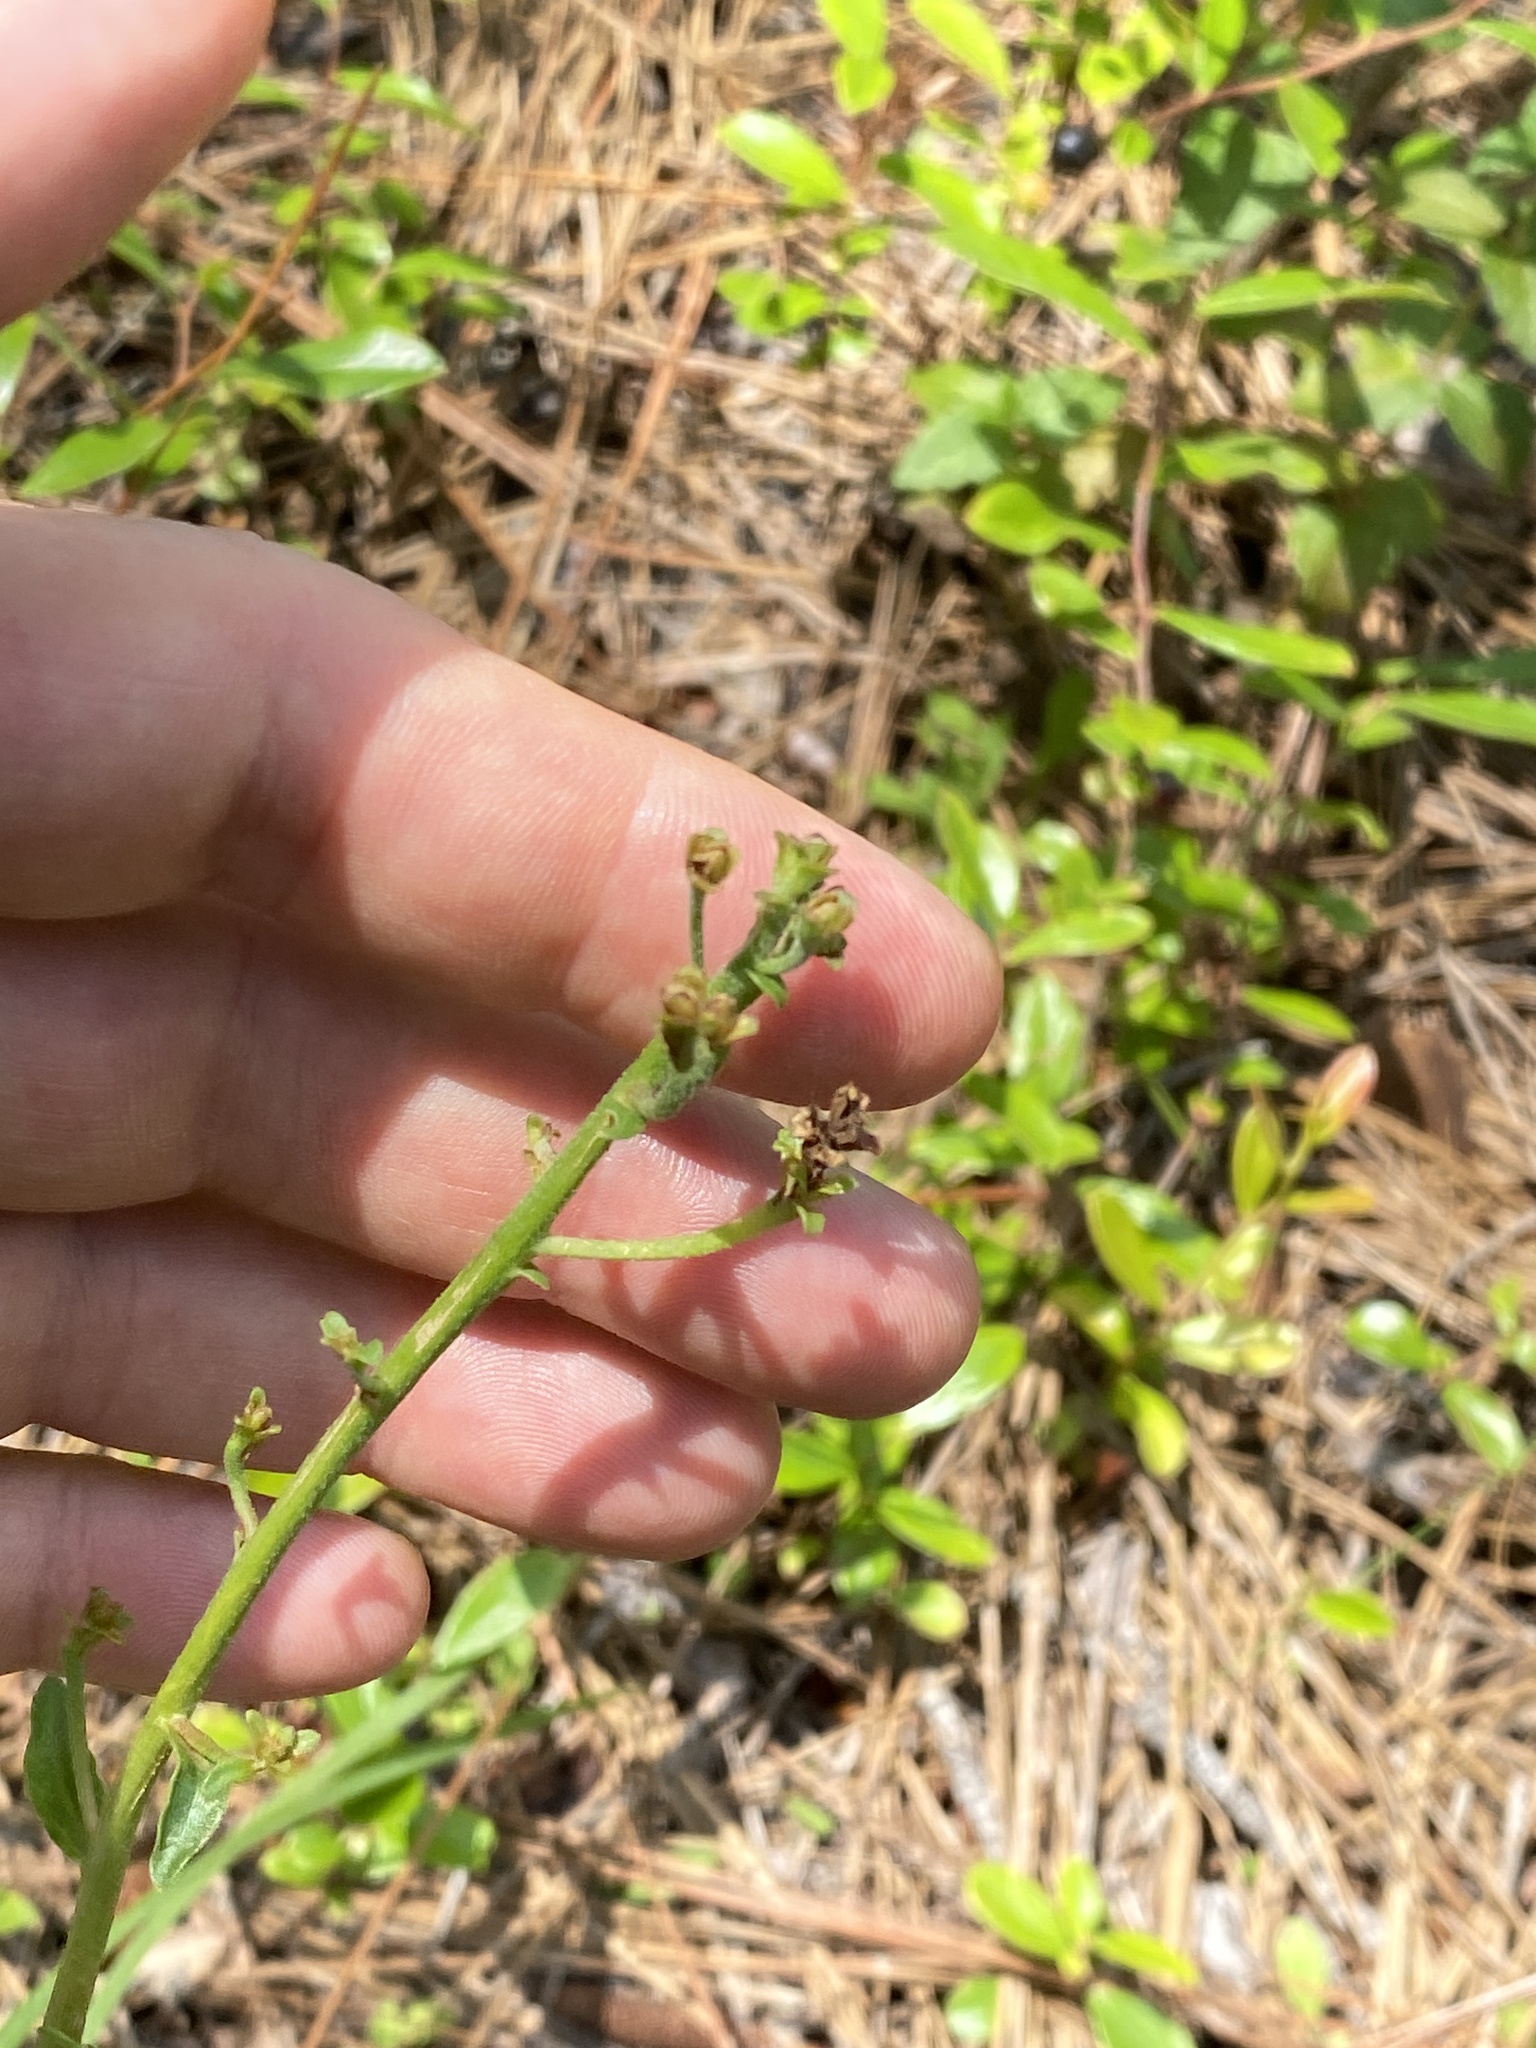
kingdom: Plantae
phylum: Tracheophyta
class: Magnoliopsida
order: Asterales
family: Asteraceae
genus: Carphephorus
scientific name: Carphephorus bellidifolius
